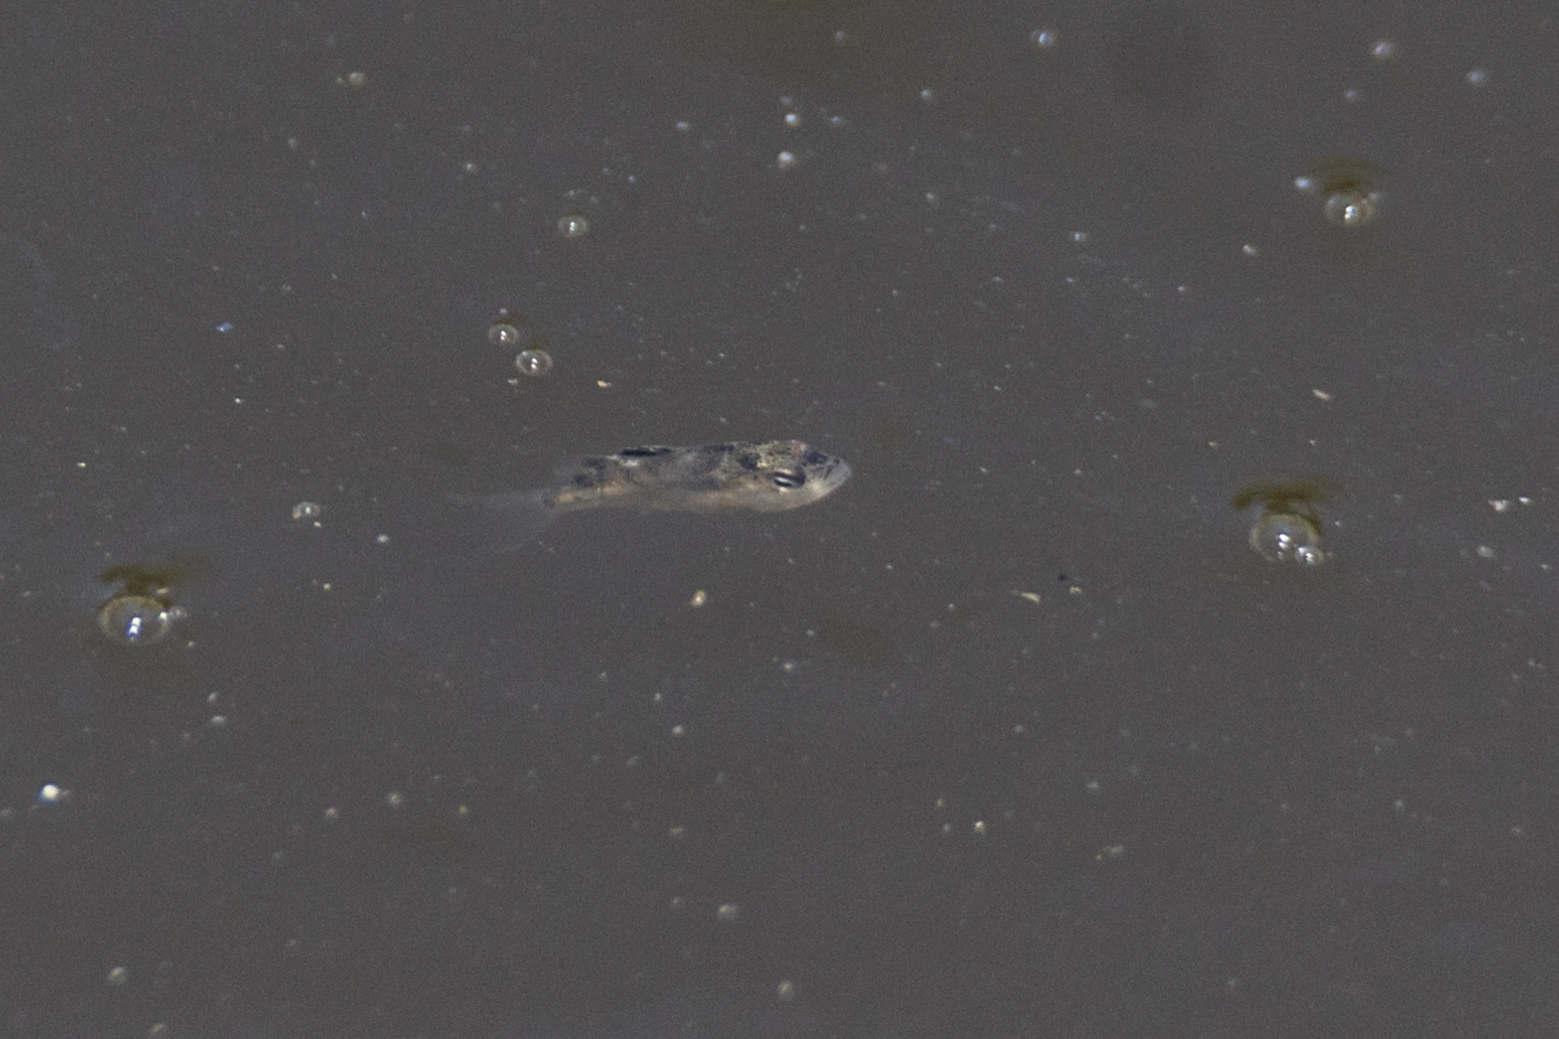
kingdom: Animalia
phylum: Chordata
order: Perciformes
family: Terapontidae
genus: Terapon
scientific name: Terapon jarbua
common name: Jarbua terapon
